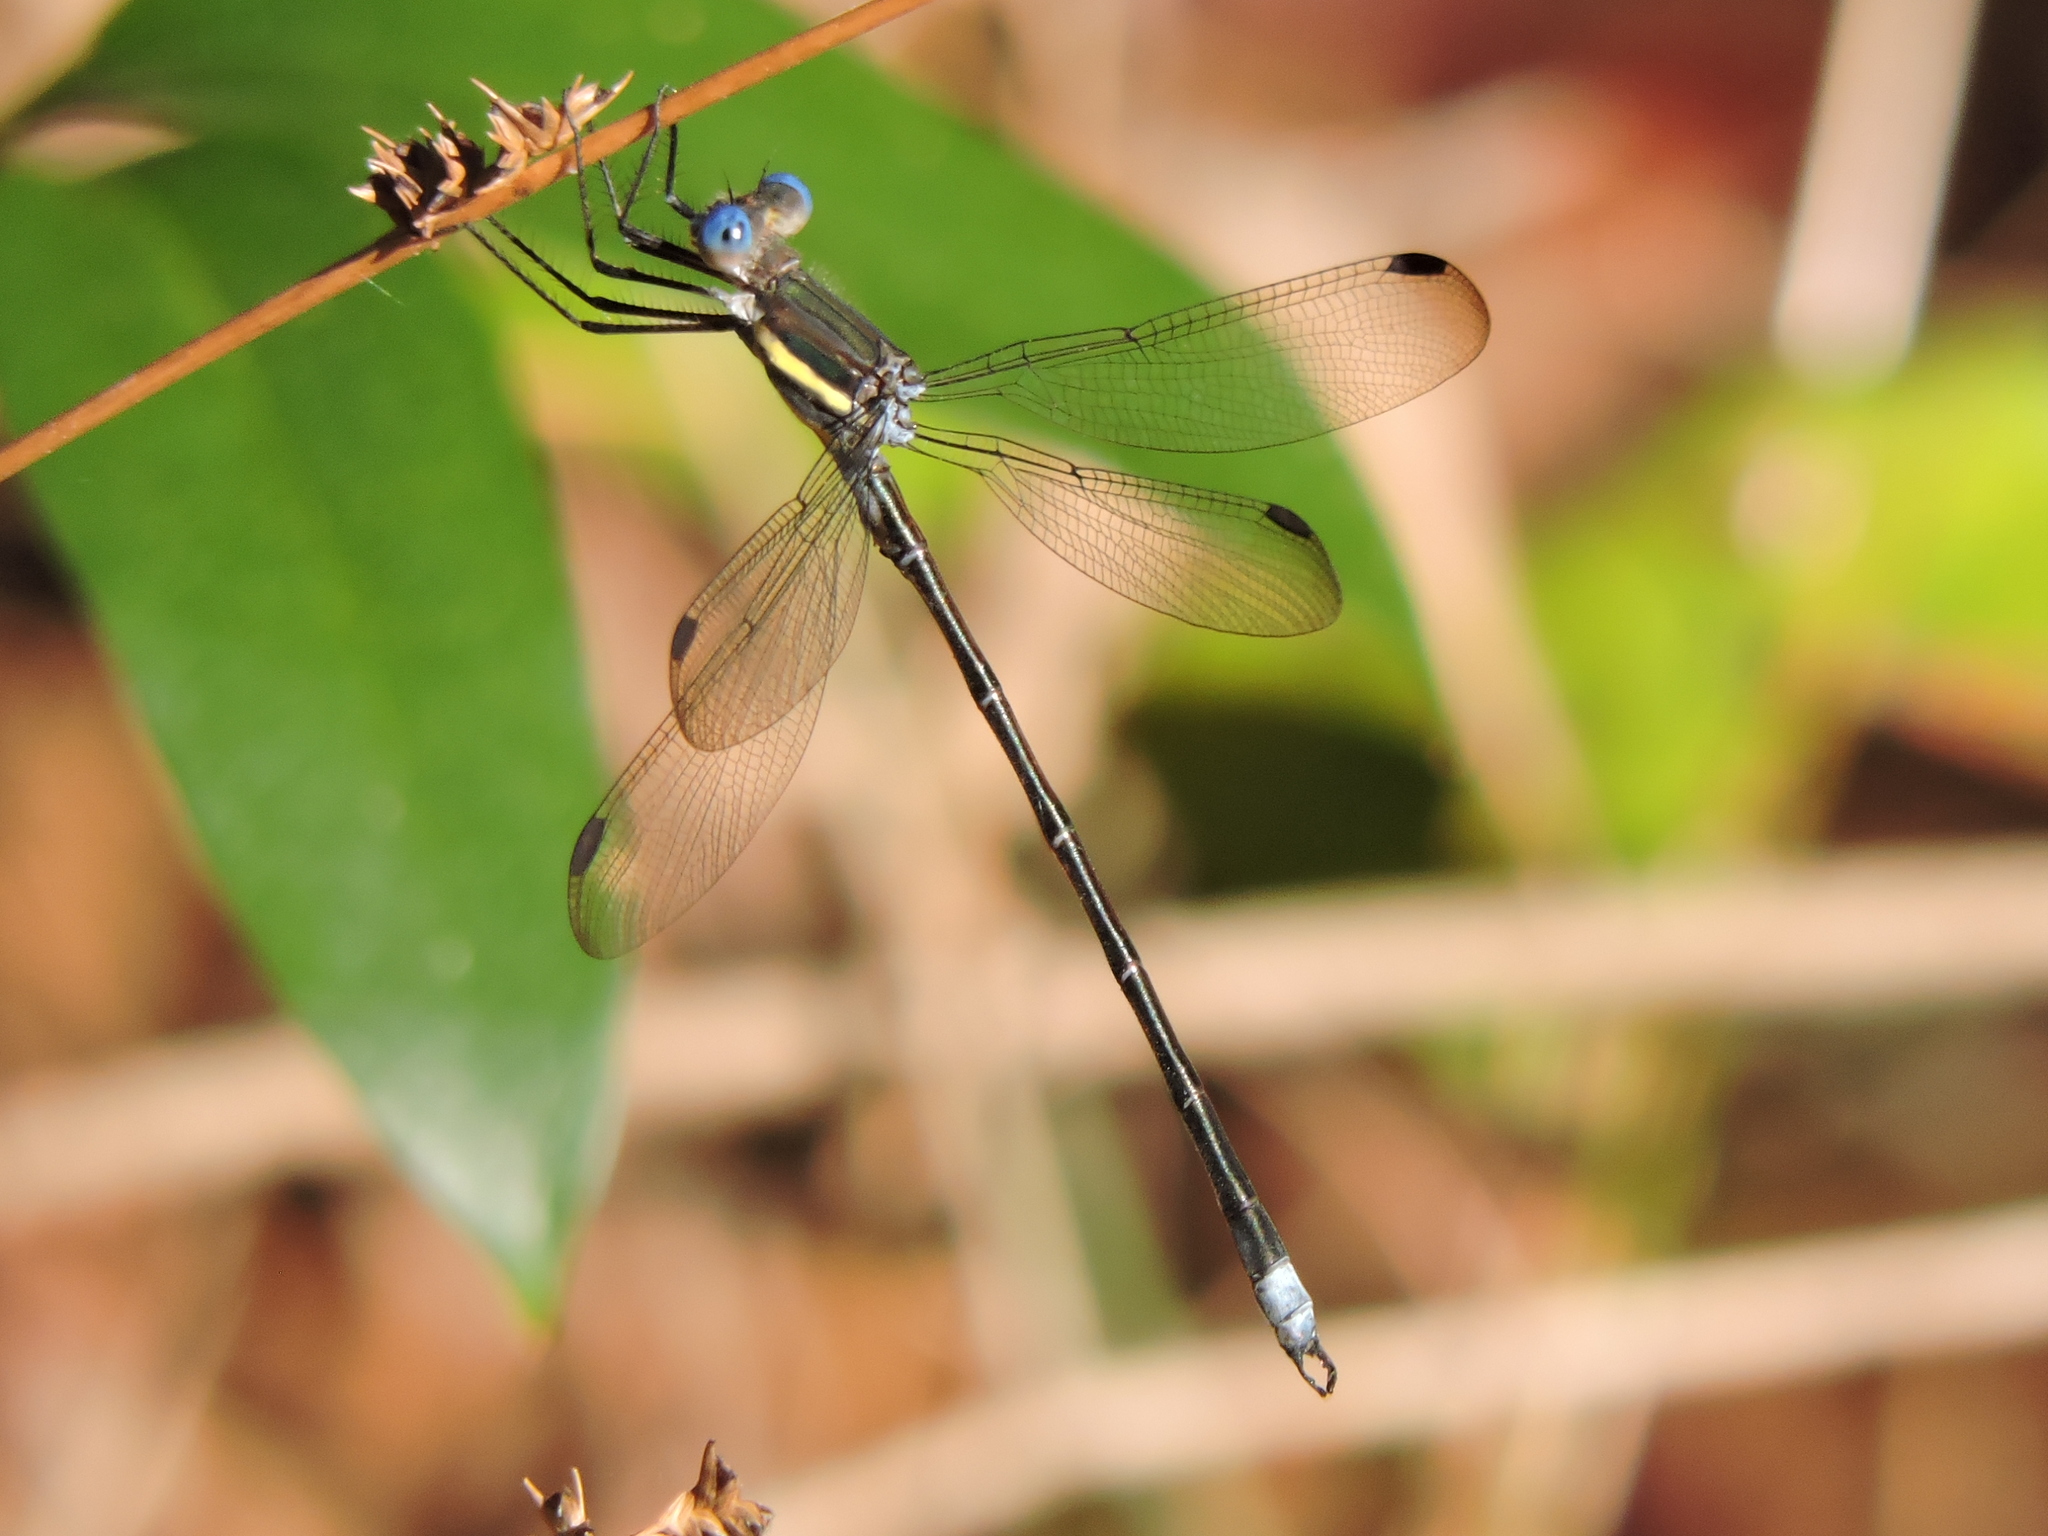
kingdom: Animalia
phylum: Arthropoda
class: Insecta
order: Odonata
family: Lestidae
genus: Archilestes
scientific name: Archilestes grandis
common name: Great spreadwing
